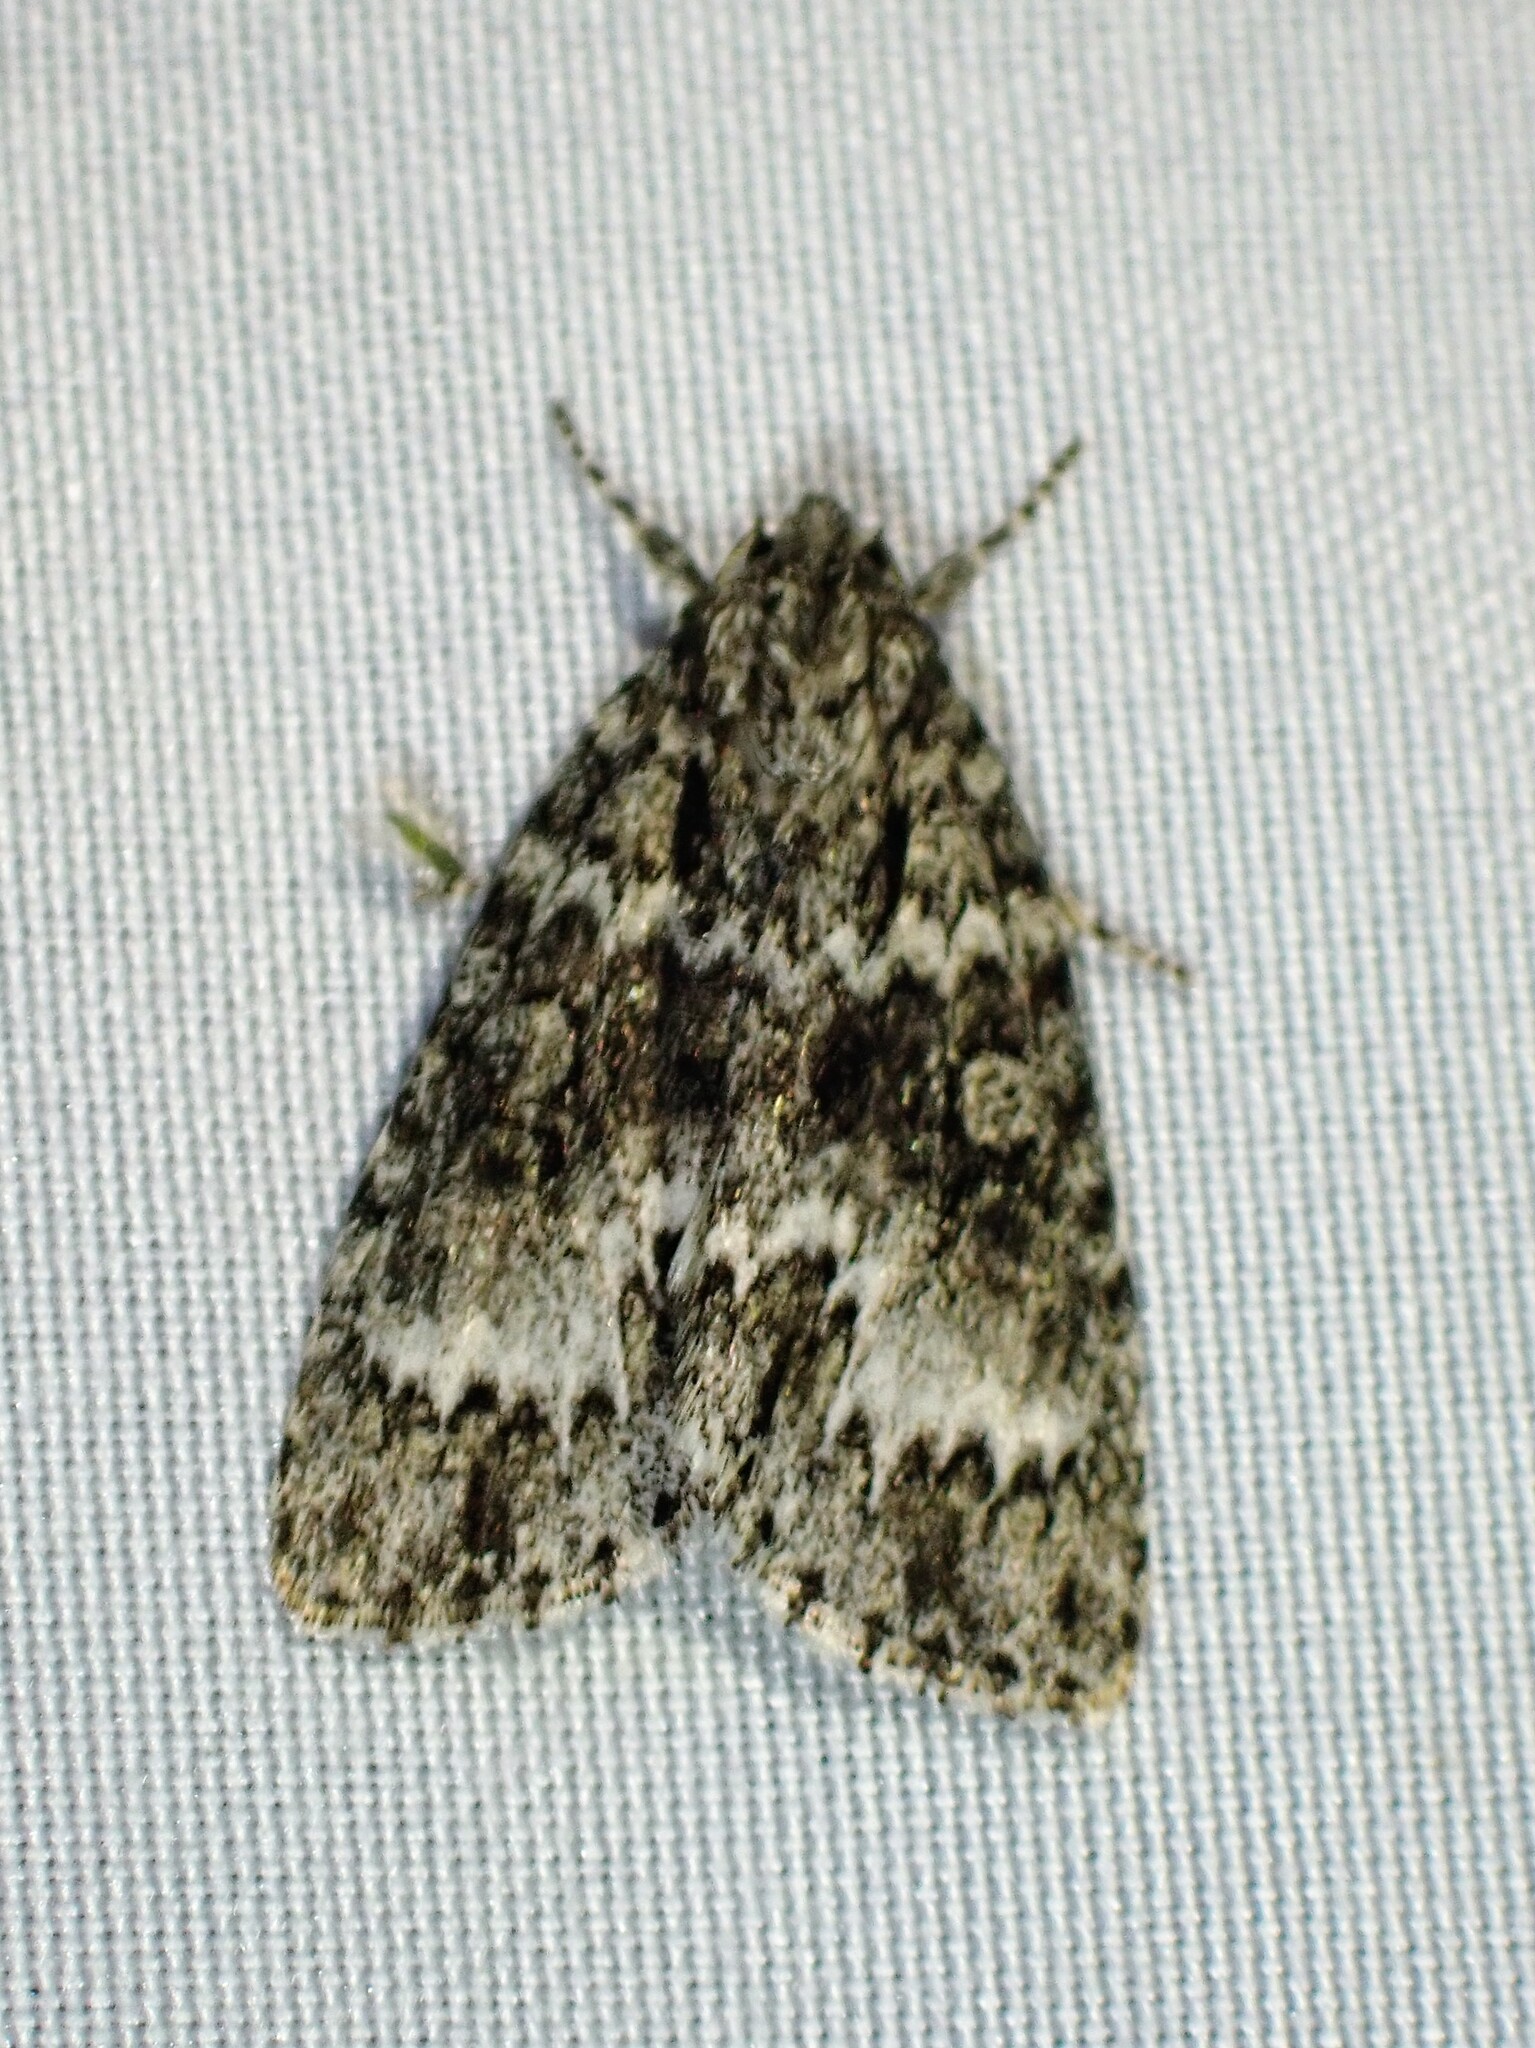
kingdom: Animalia
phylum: Arthropoda
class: Insecta
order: Lepidoptera
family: Noctuidae
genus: Acronicta
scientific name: Acronicta fragilis
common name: Fragile dagger
